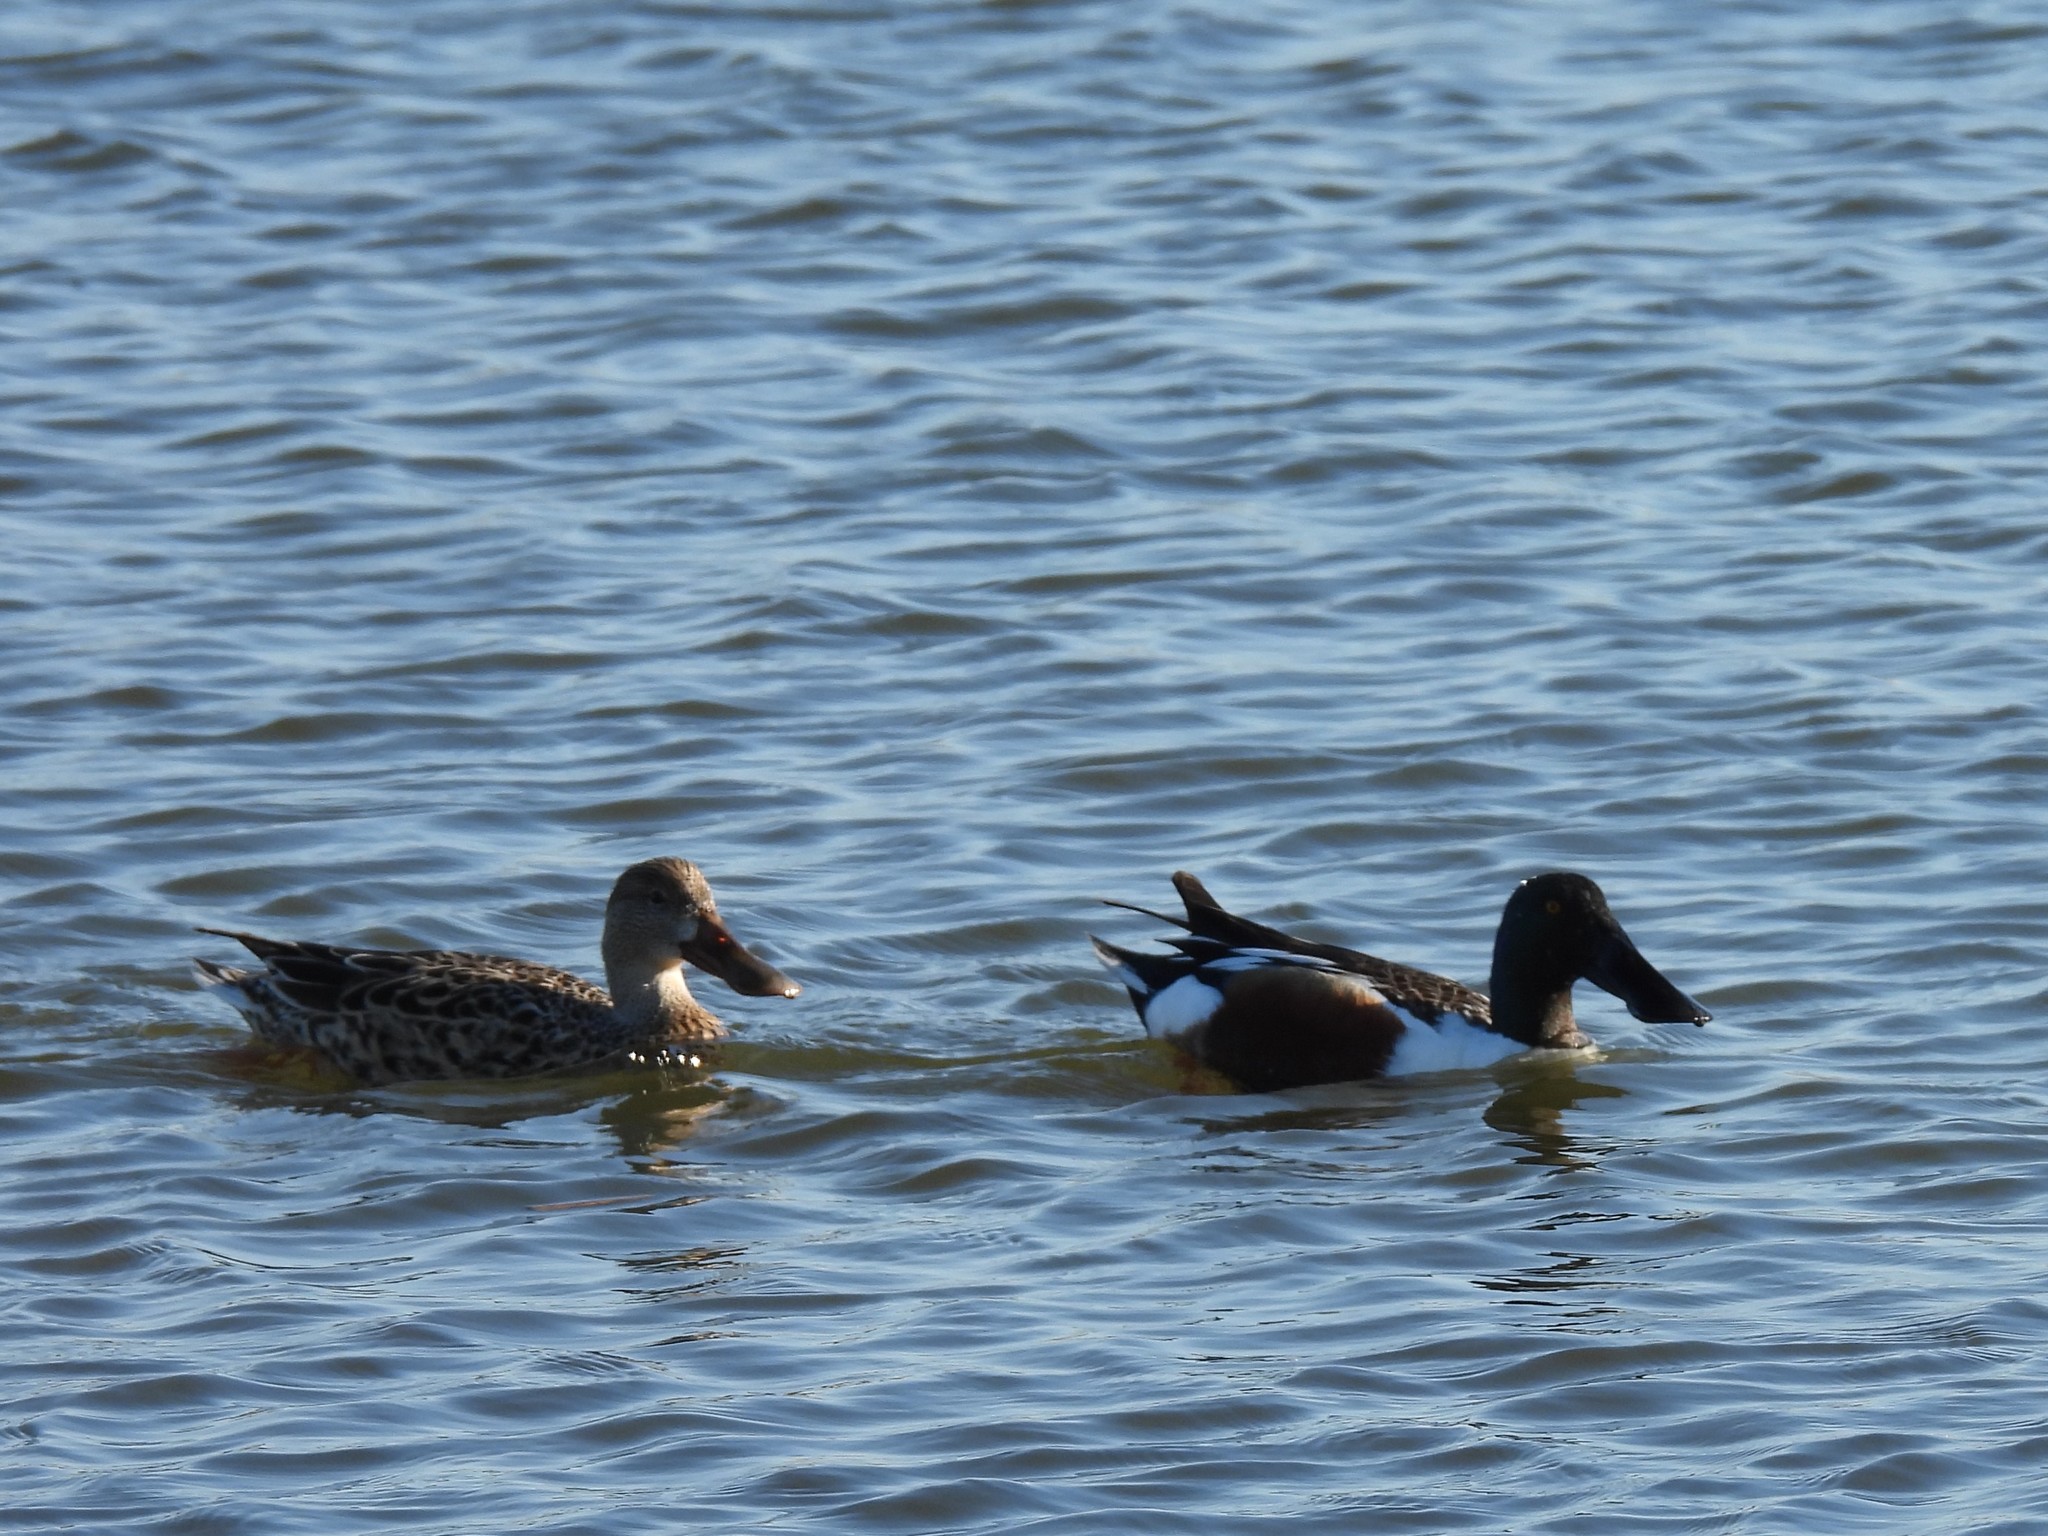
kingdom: Animalia
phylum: Chordata
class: Aves
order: Anseriformes
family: Anatidae
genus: Spatula
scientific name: Spatula clypeata
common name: Northern shoveler
